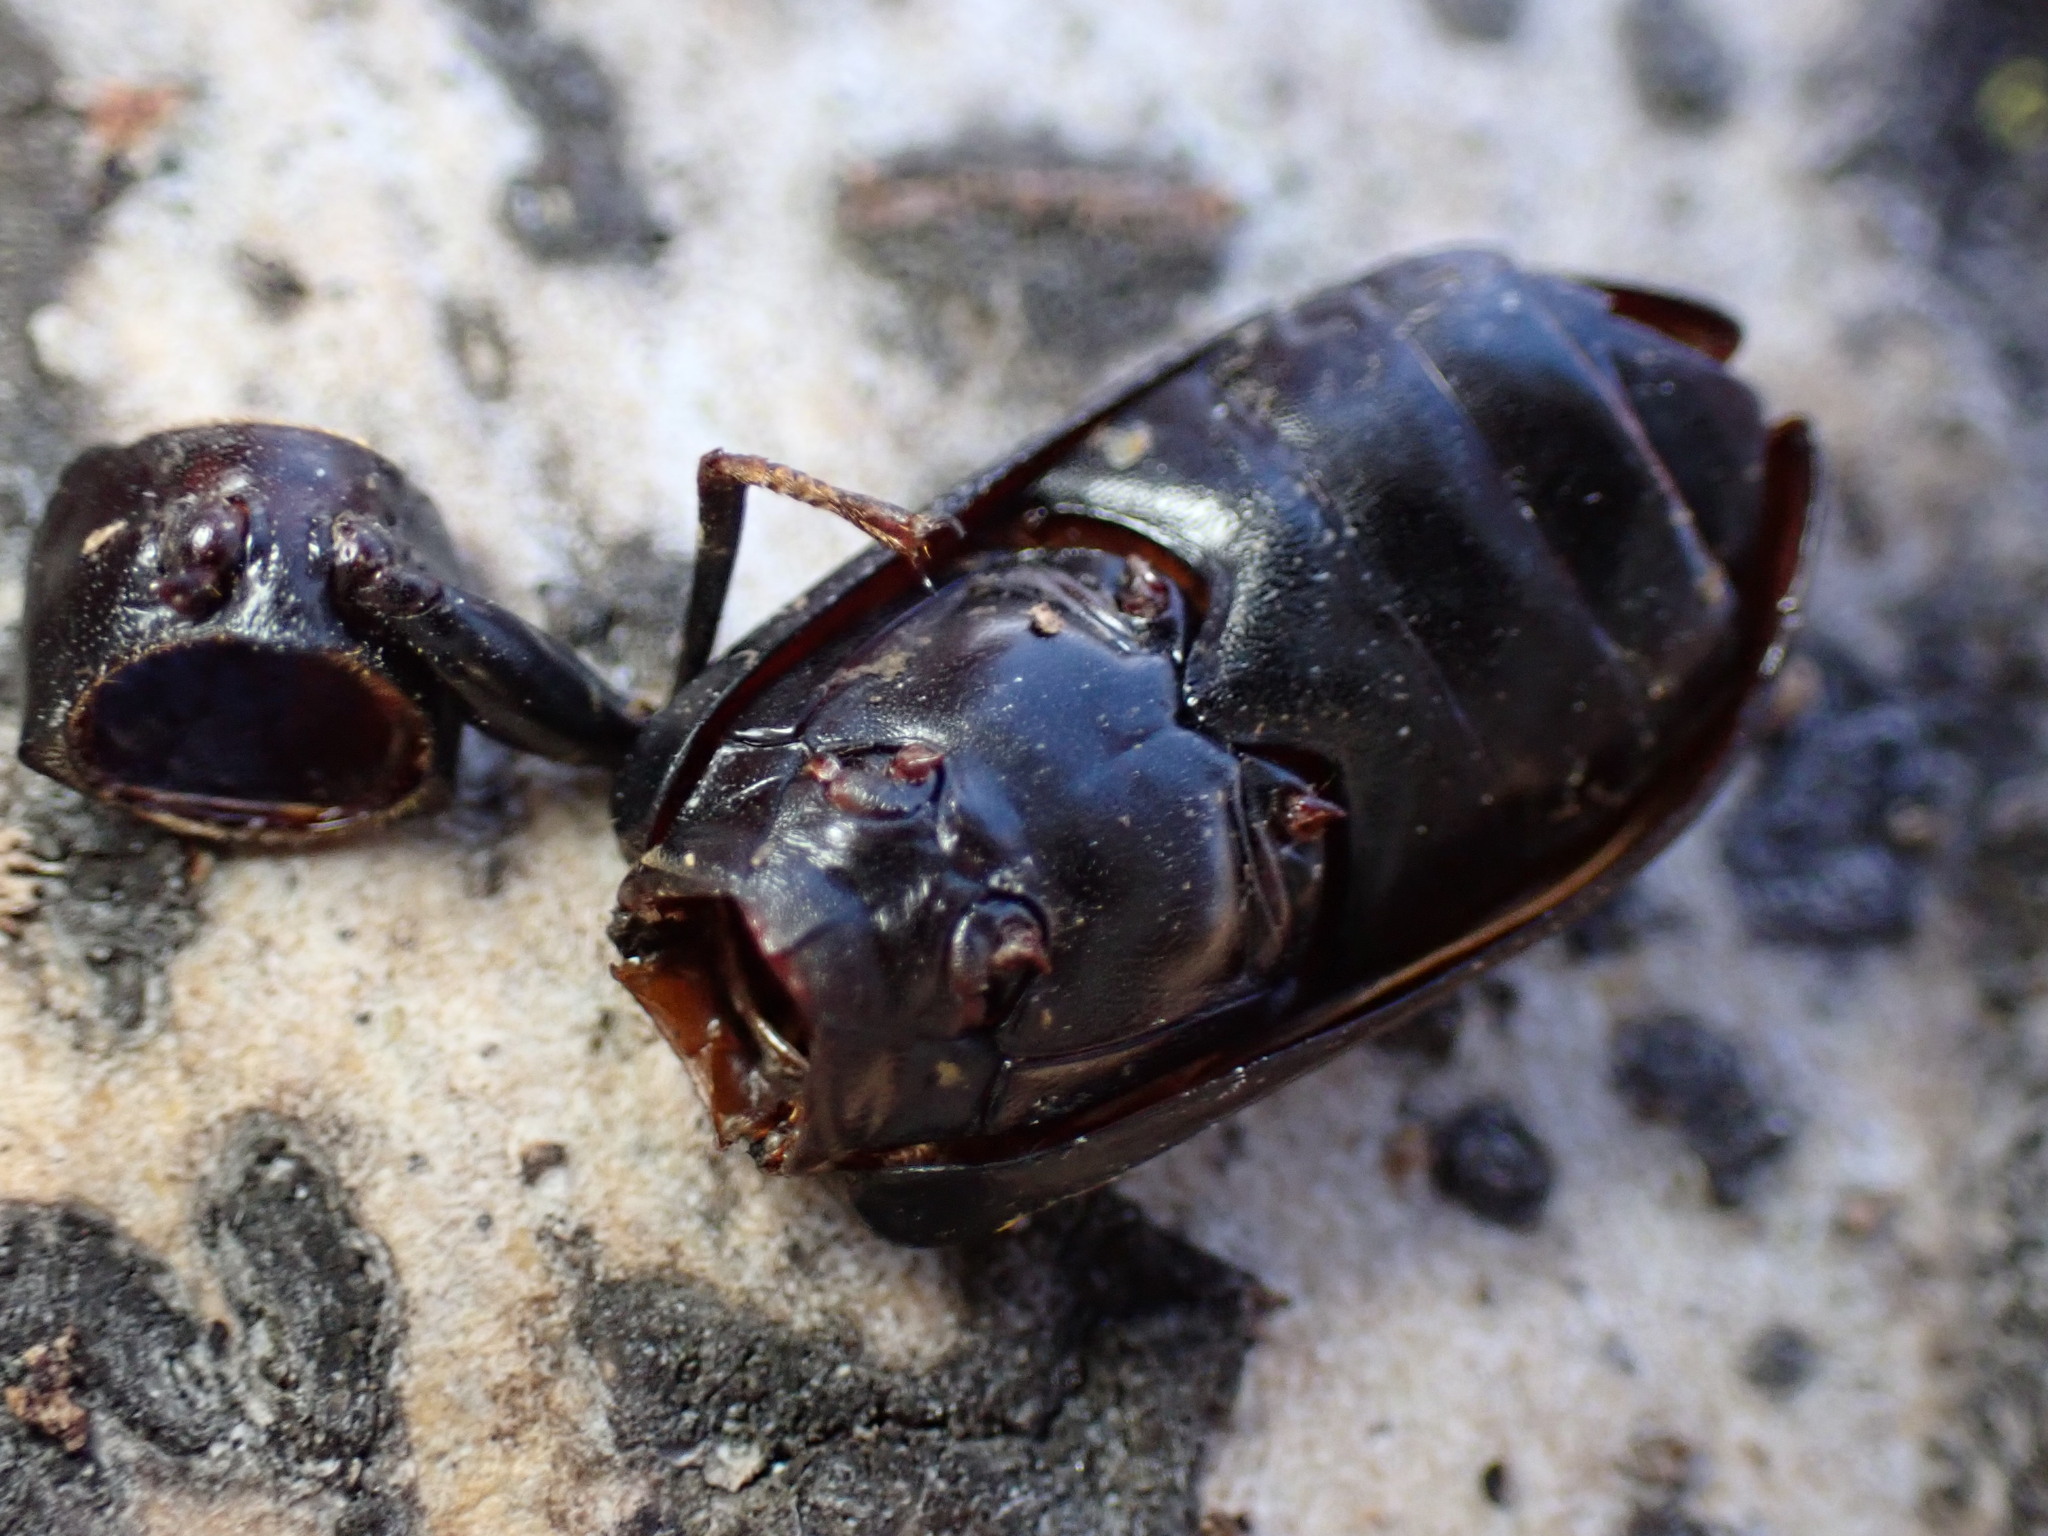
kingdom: Animalia
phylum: Arthropoda
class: Insecta
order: Coleoptera
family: Tenebrionidae
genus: Alobates
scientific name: Alobates
